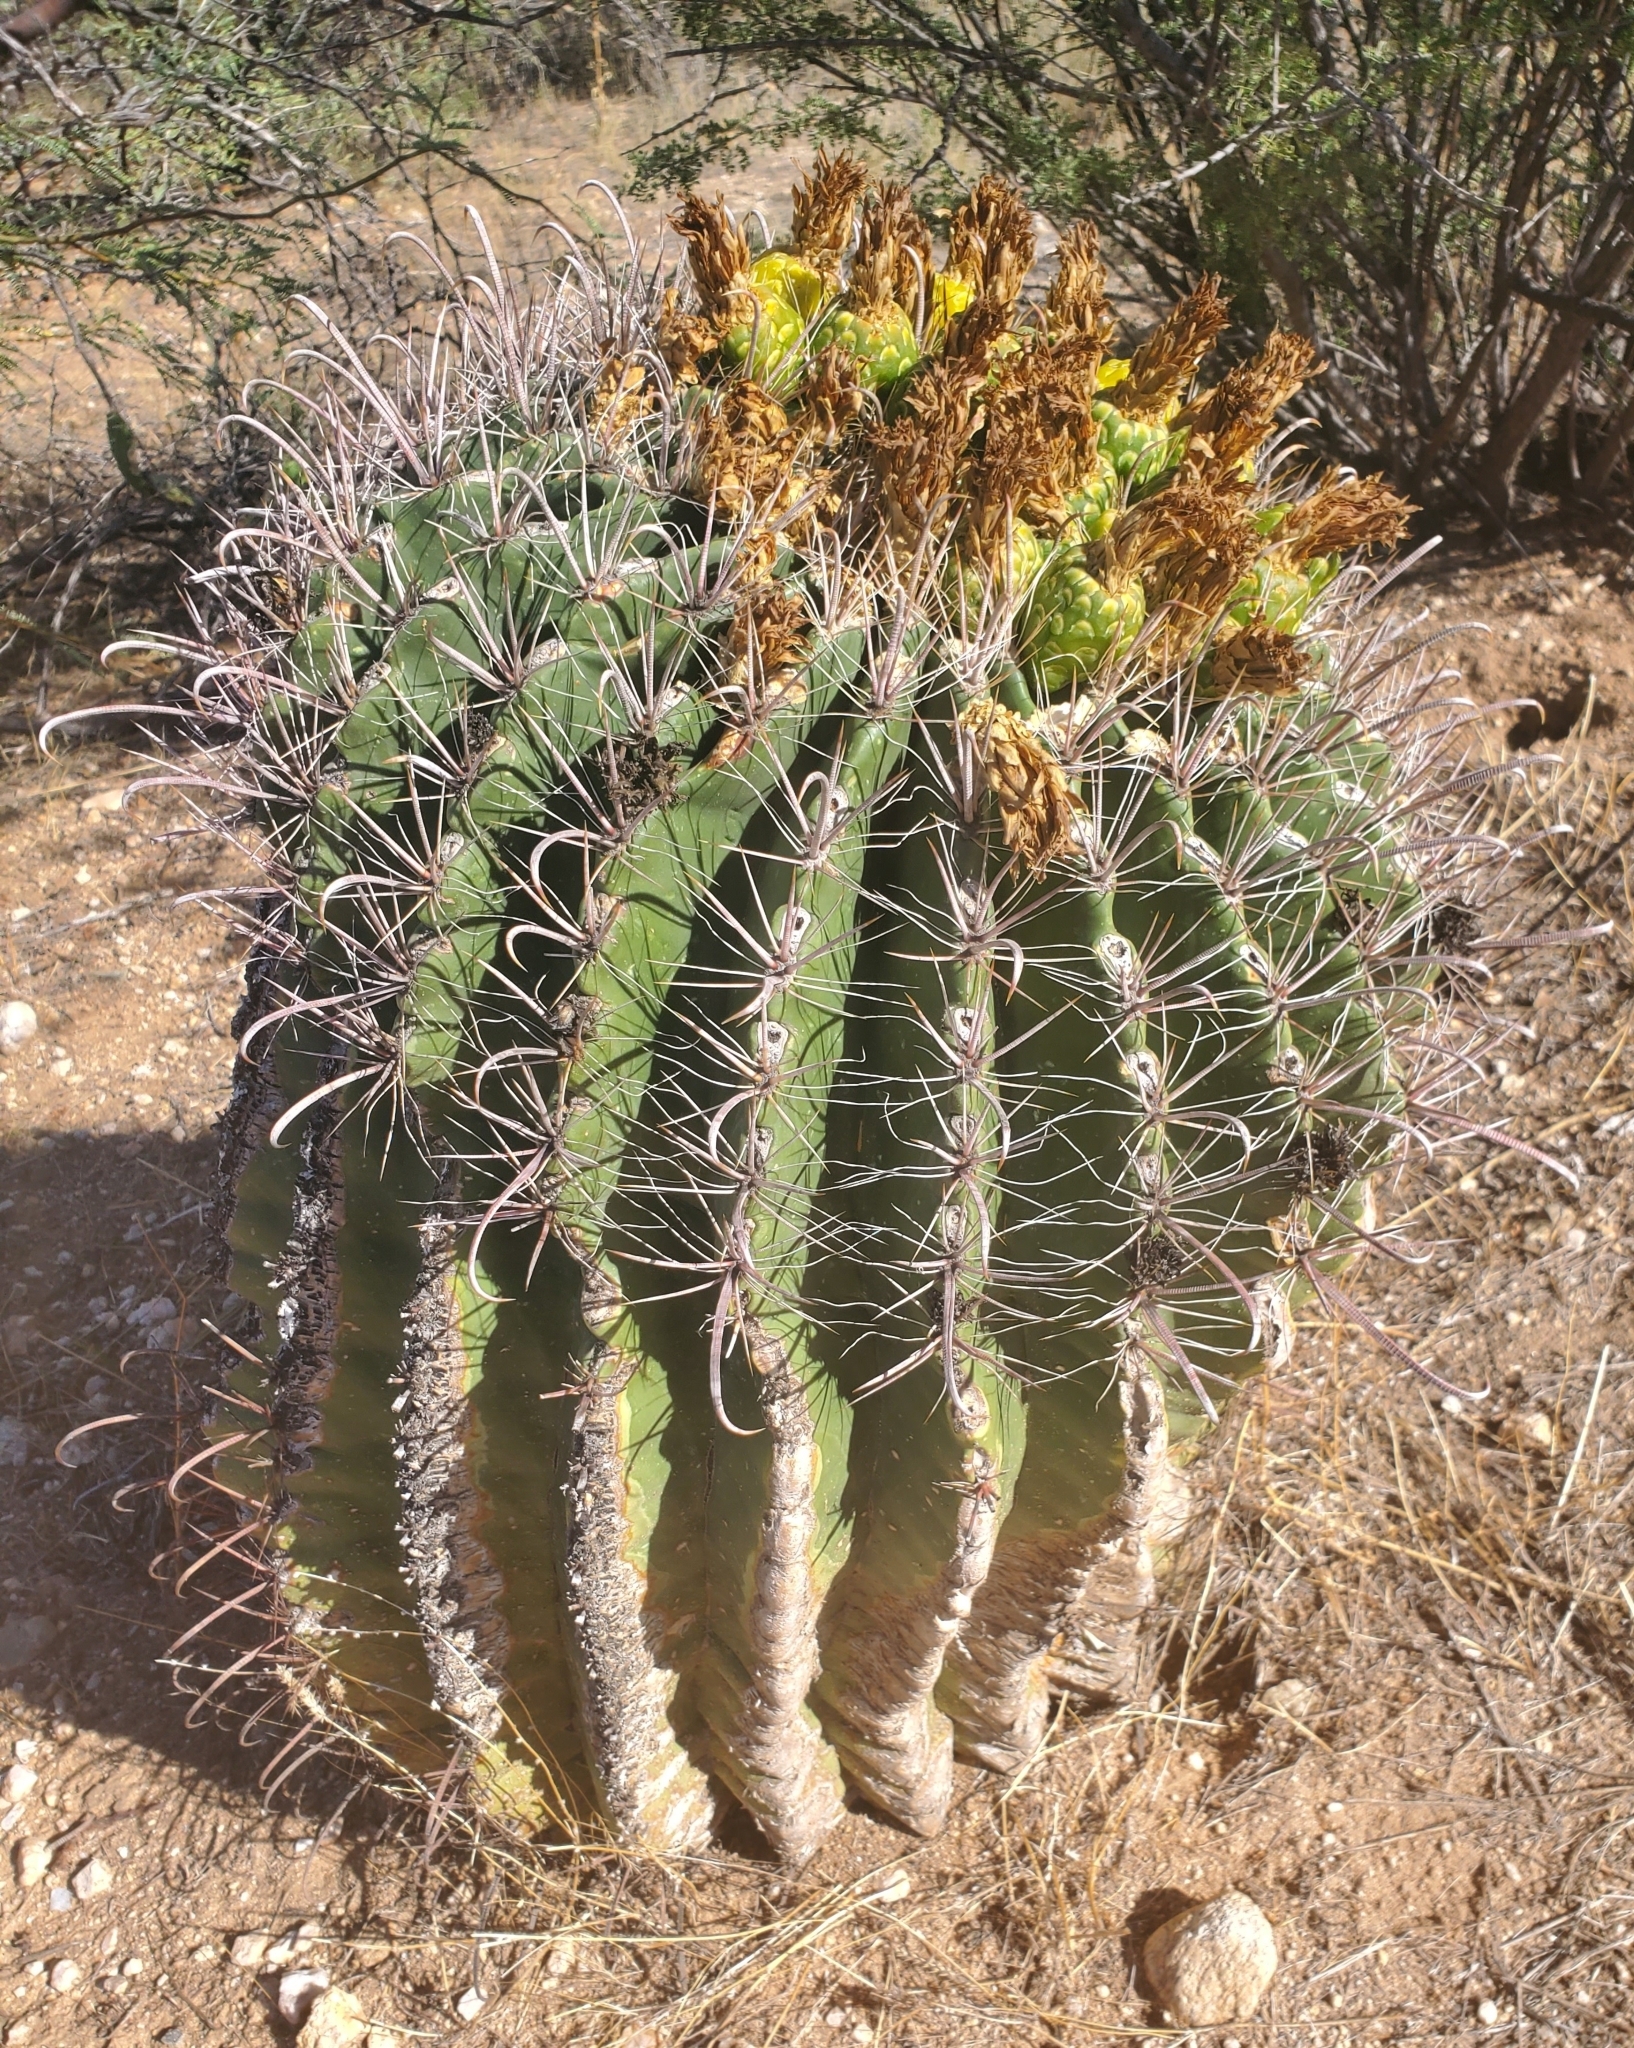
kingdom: Plantae
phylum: Tracheophyta
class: Magnoliopsida
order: Caryophyllales
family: Cactaceae
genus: Ferocactus
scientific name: Ferocactus wislizeni
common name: Candy barrel cactus
